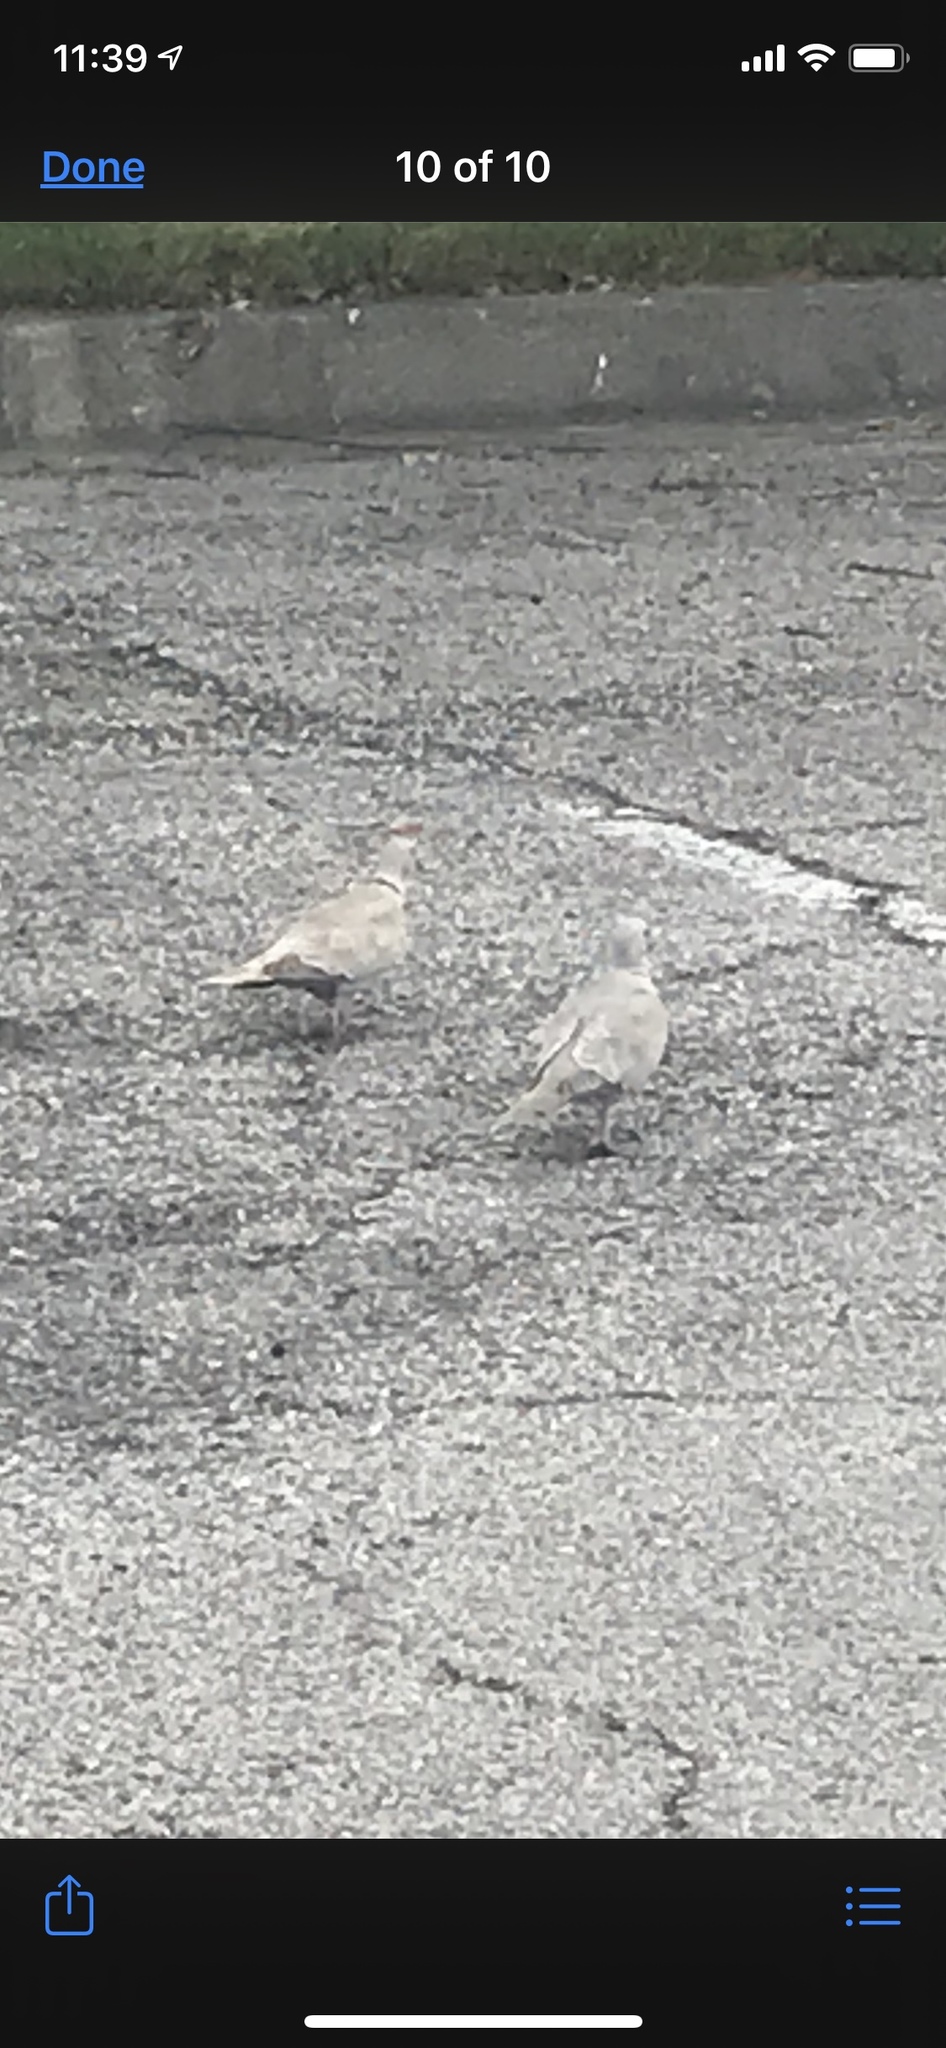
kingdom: Animalia
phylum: Chordata
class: Aves
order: Columbiformes
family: Columbidae
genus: Streptopelia
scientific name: Streptopelia decaocto
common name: Eurasian collared dove
